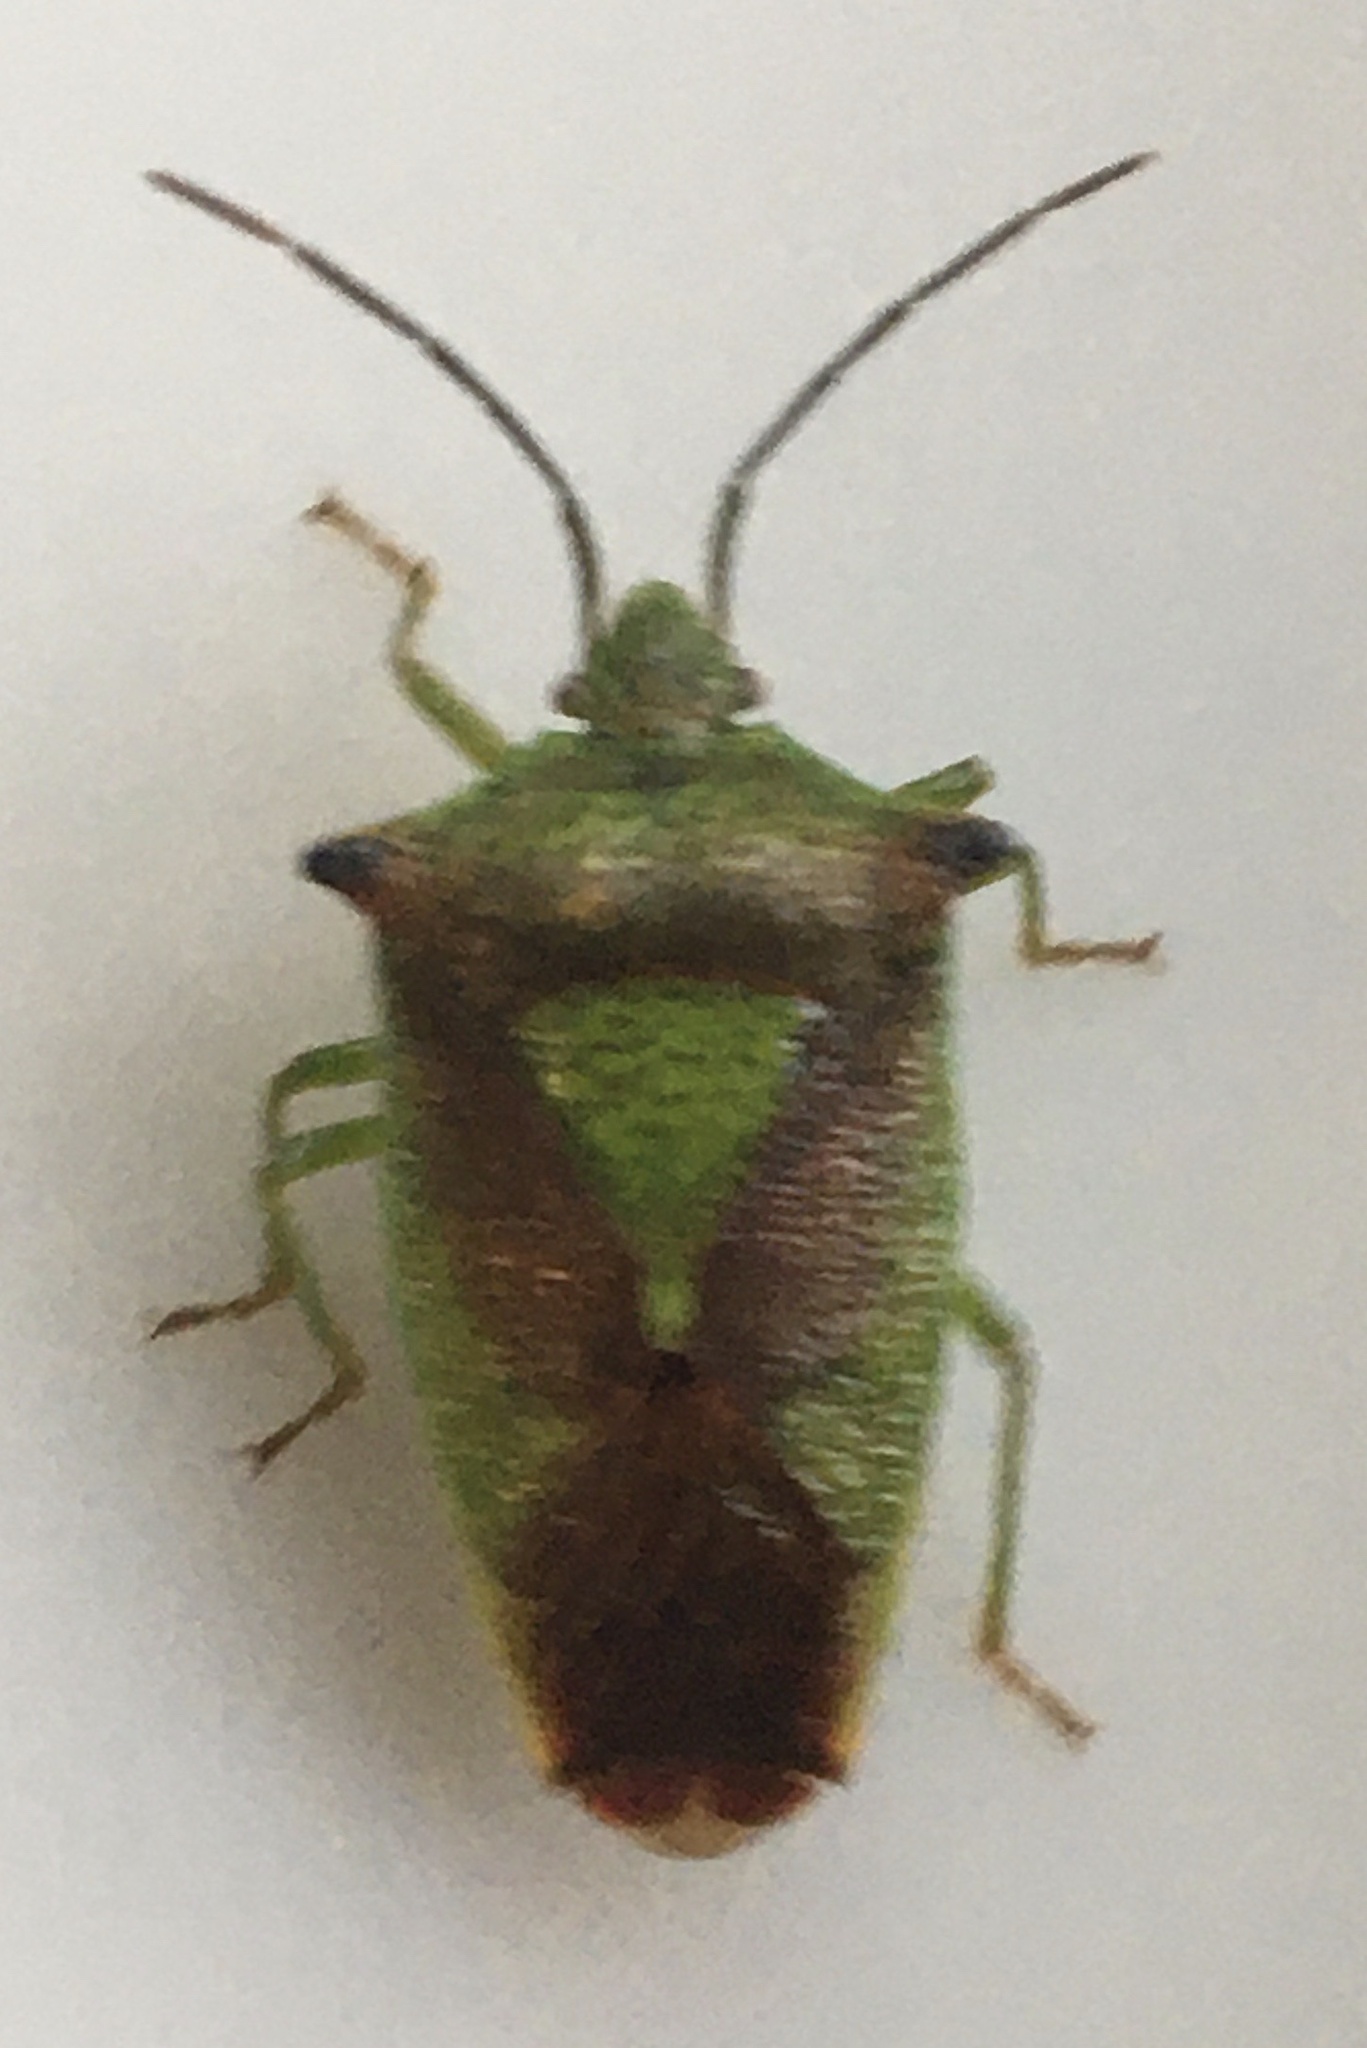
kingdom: Animalia
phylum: Arthropoda
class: Insecta
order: Hemiptera
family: Acanthosomatidae
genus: Acanthosoma
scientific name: Acanthosoma haemorrhoidale
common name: Hawthorn shieldbug
